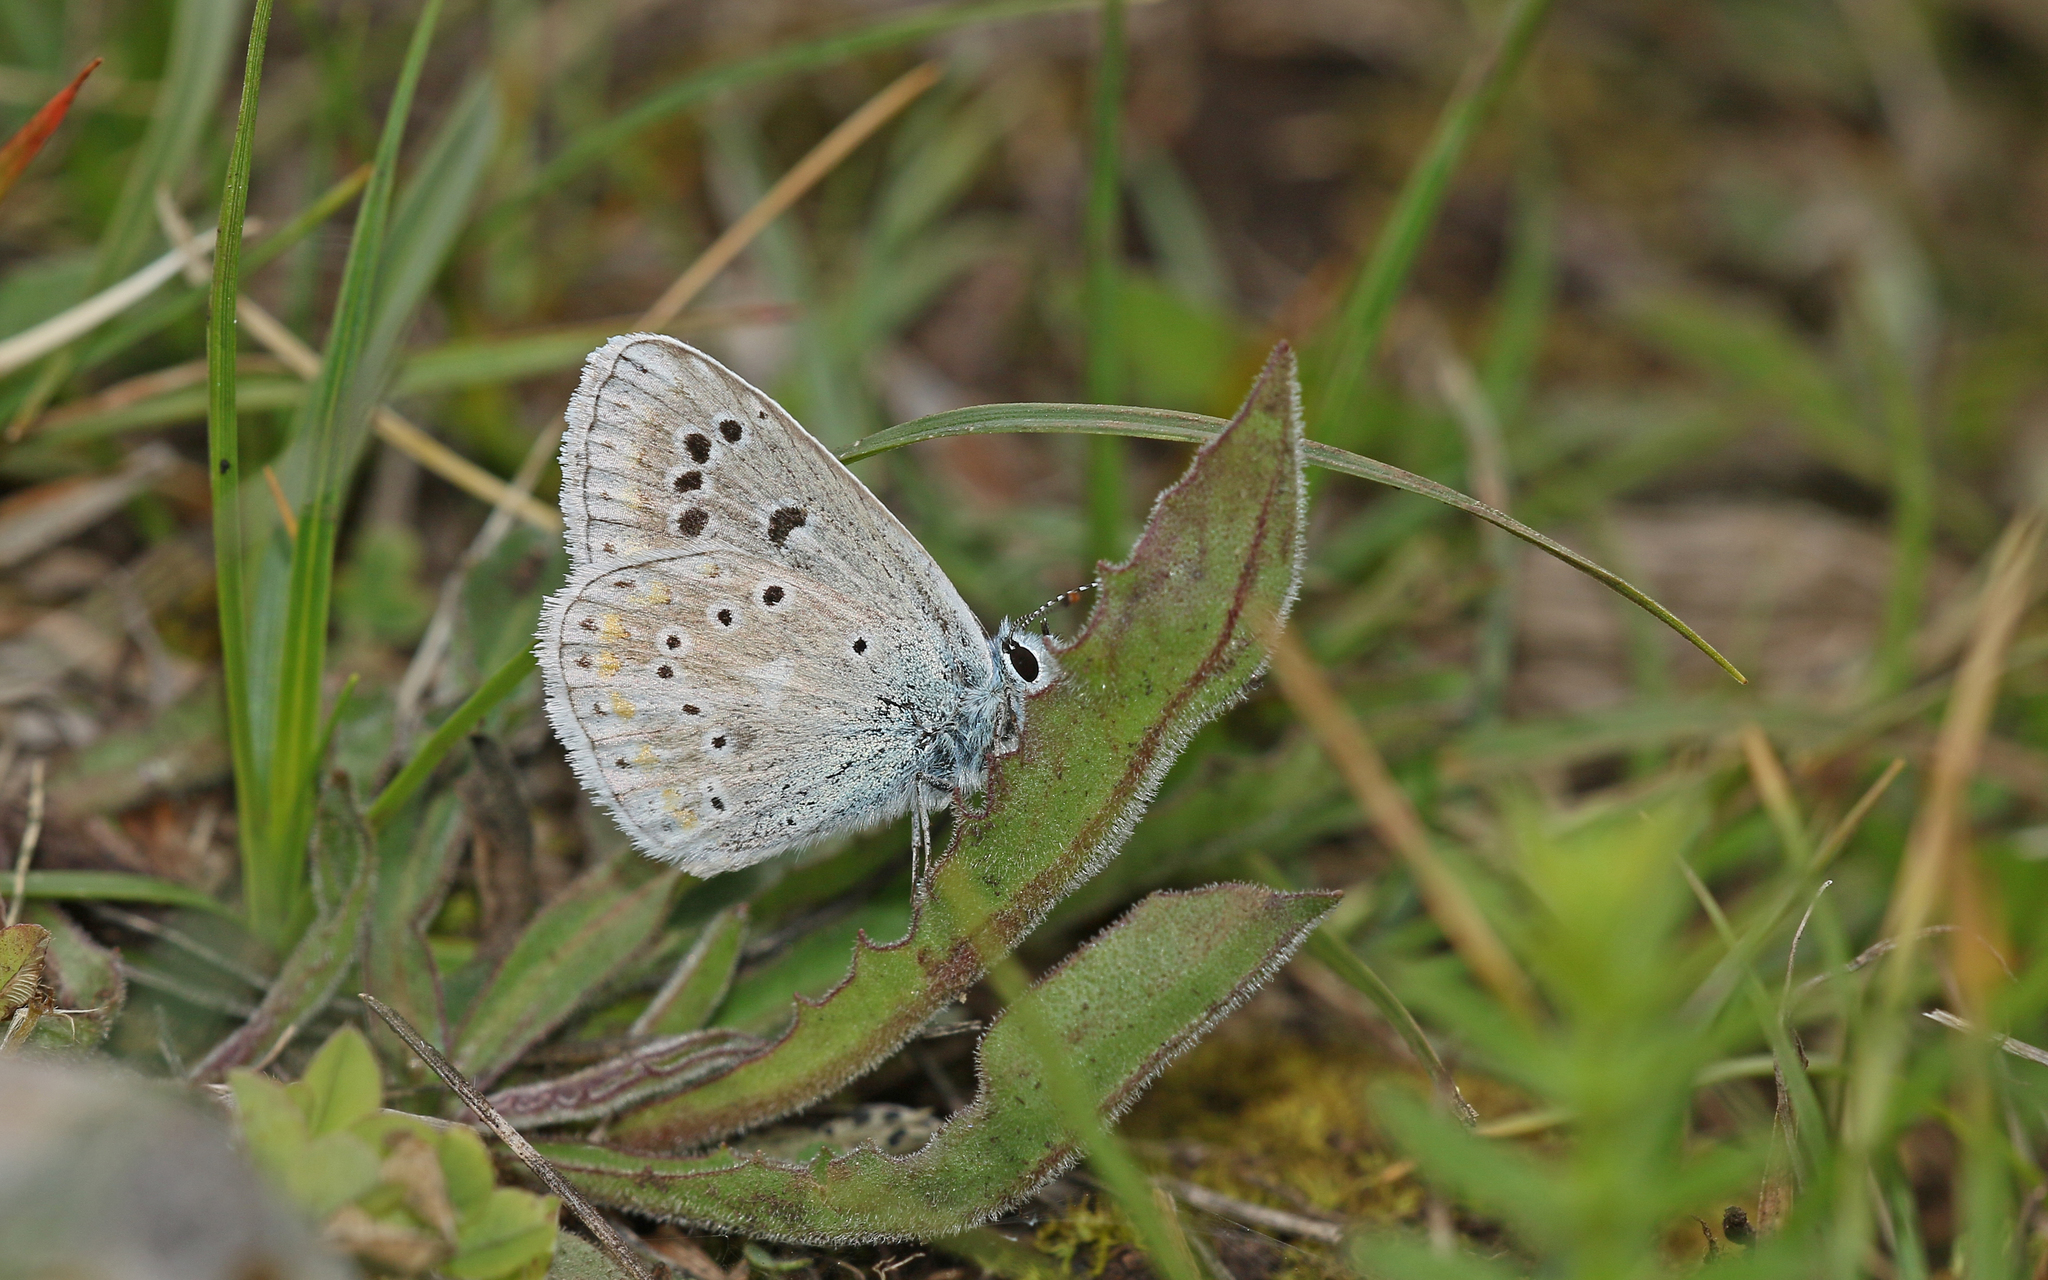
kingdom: Animalia
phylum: Arthropoda
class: Insecta
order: Lepidoptera
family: Lycaenidae
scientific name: Lycaenidae
